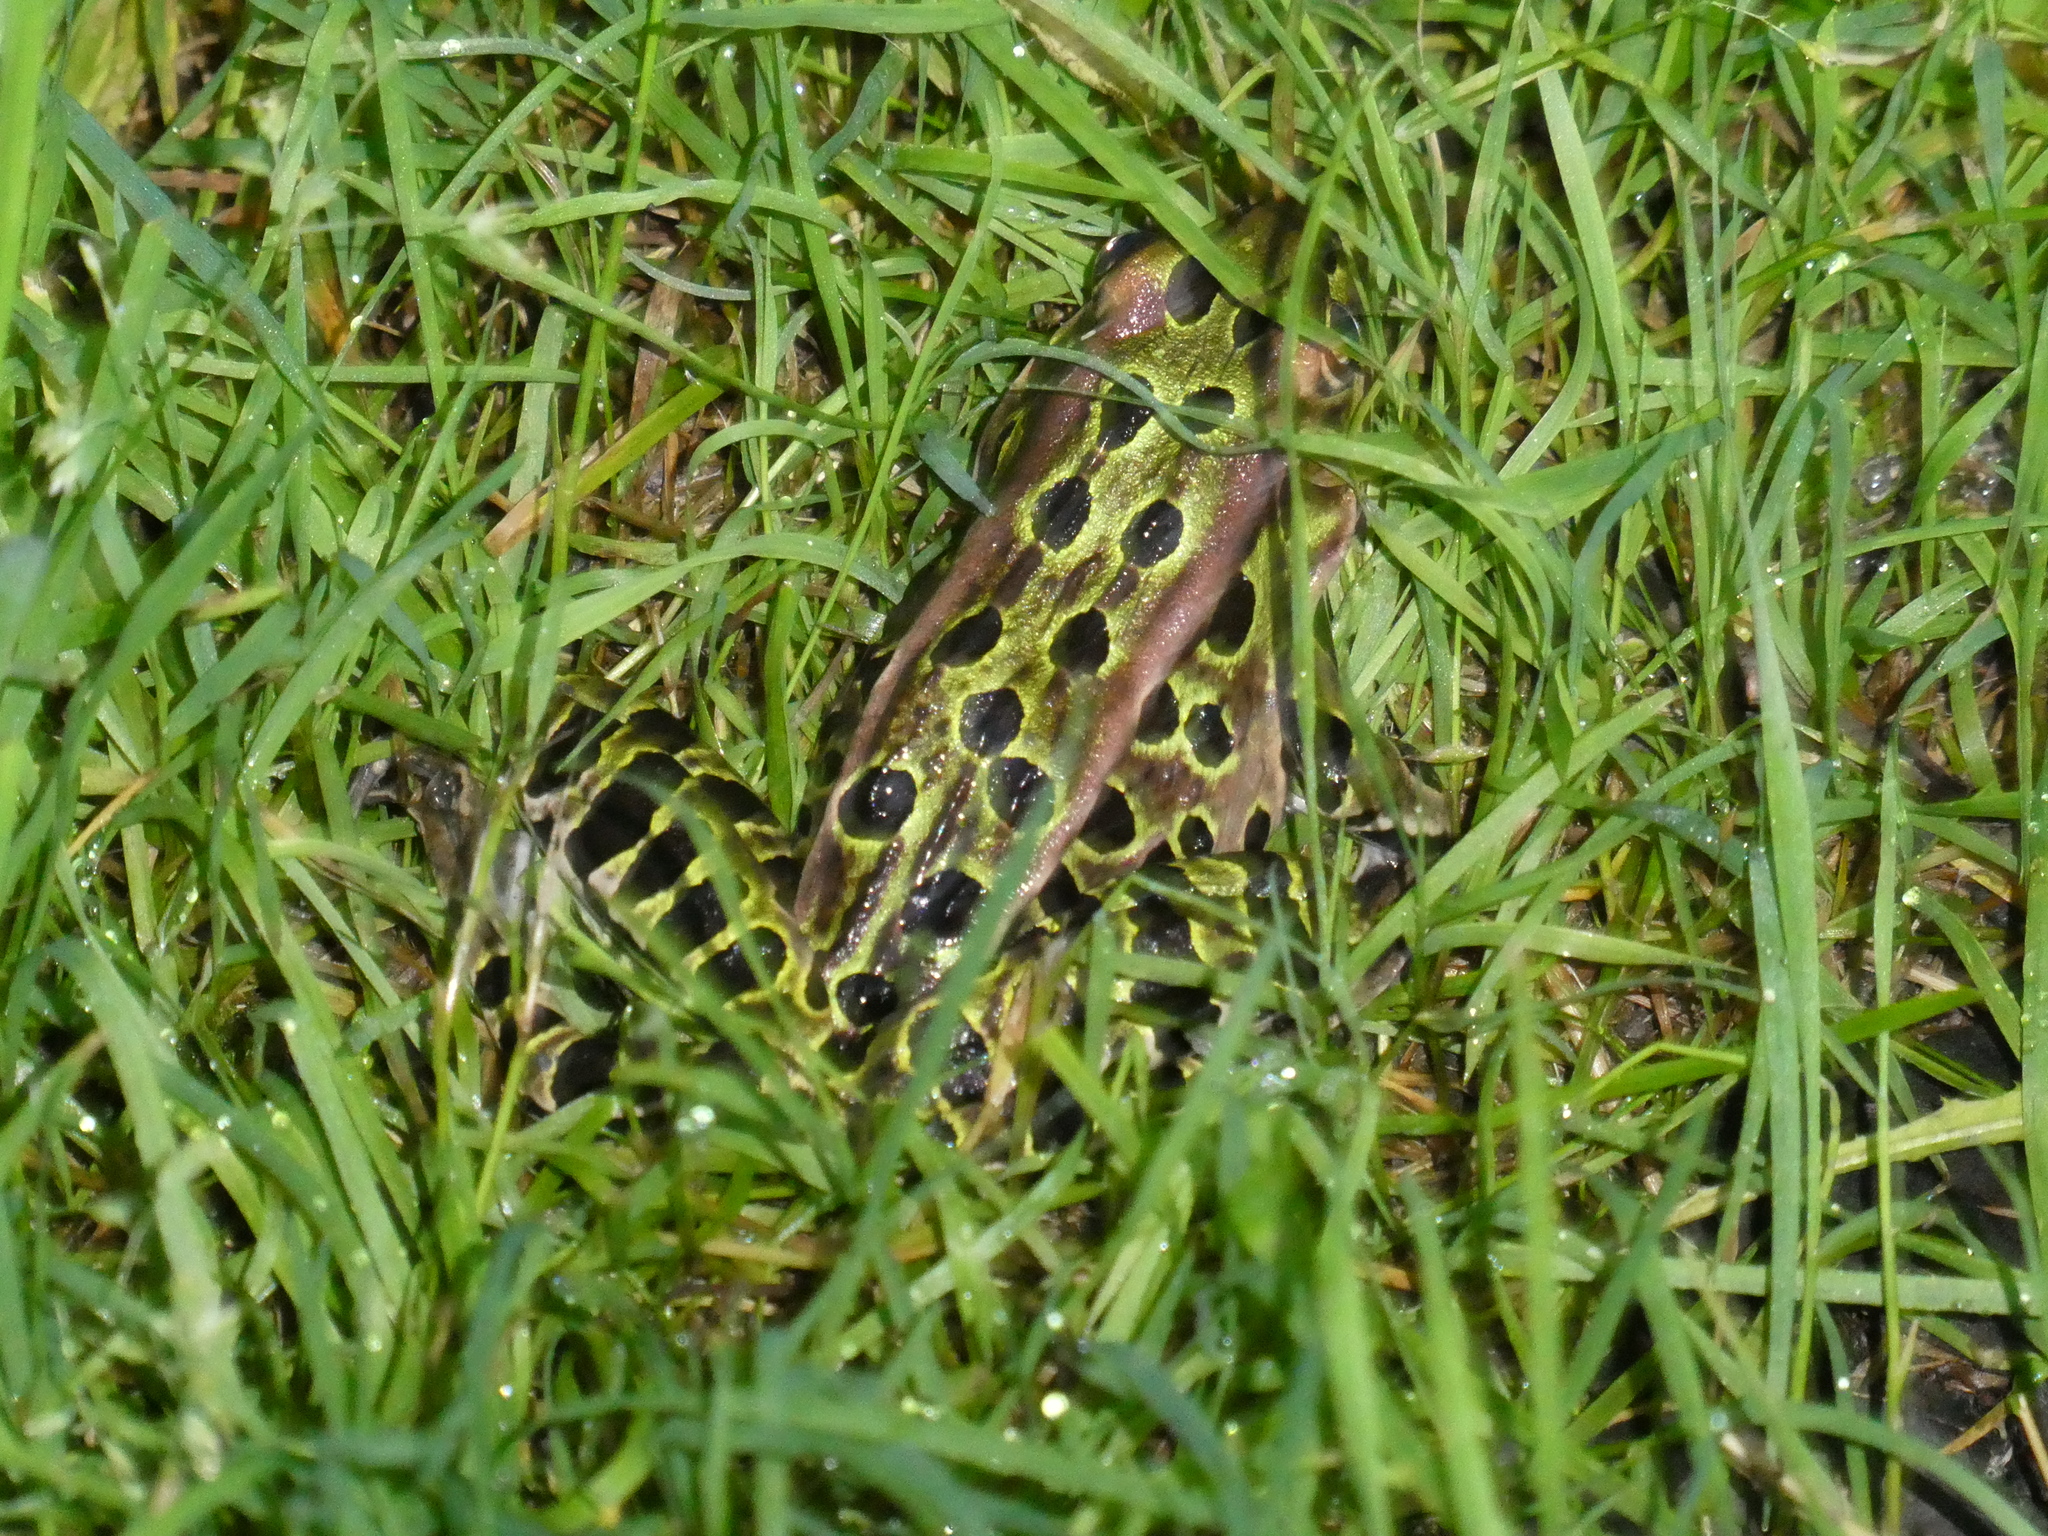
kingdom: Animalia
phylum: Chordata
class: Amphibia
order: Anura
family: Ranidae
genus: Lithobates
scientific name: Lithobates pipiens
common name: Northern leopard frog
